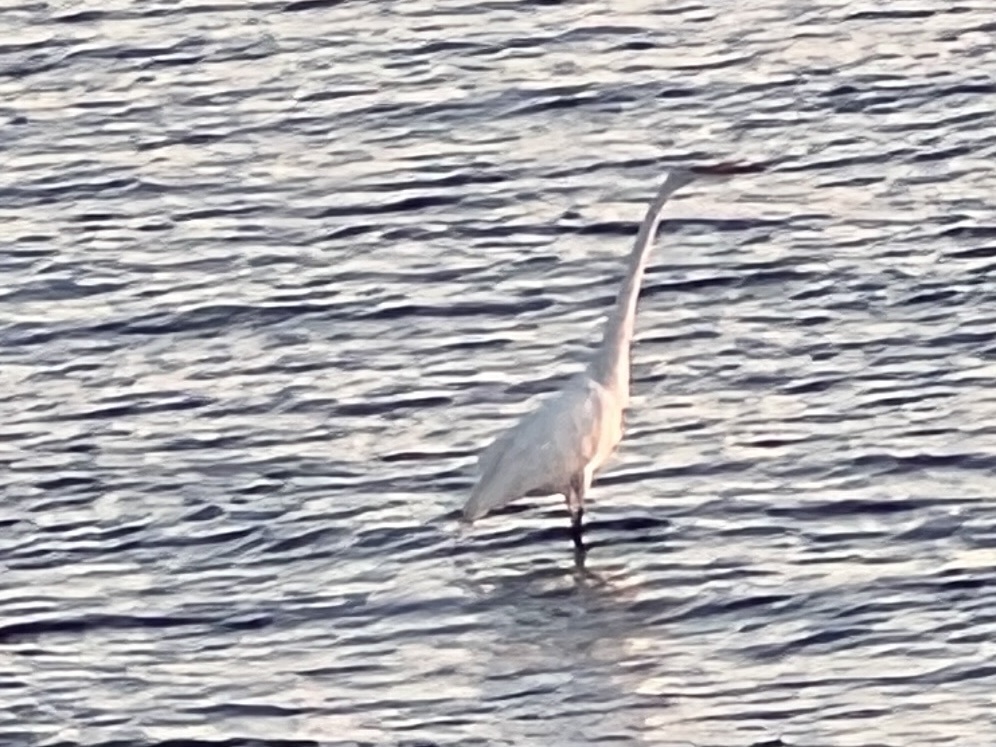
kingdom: Animalia
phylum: Chordata
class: Aves
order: Pelecaniformes
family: Ardeidae
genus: Ardea
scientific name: Ardea alba
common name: Great egret
